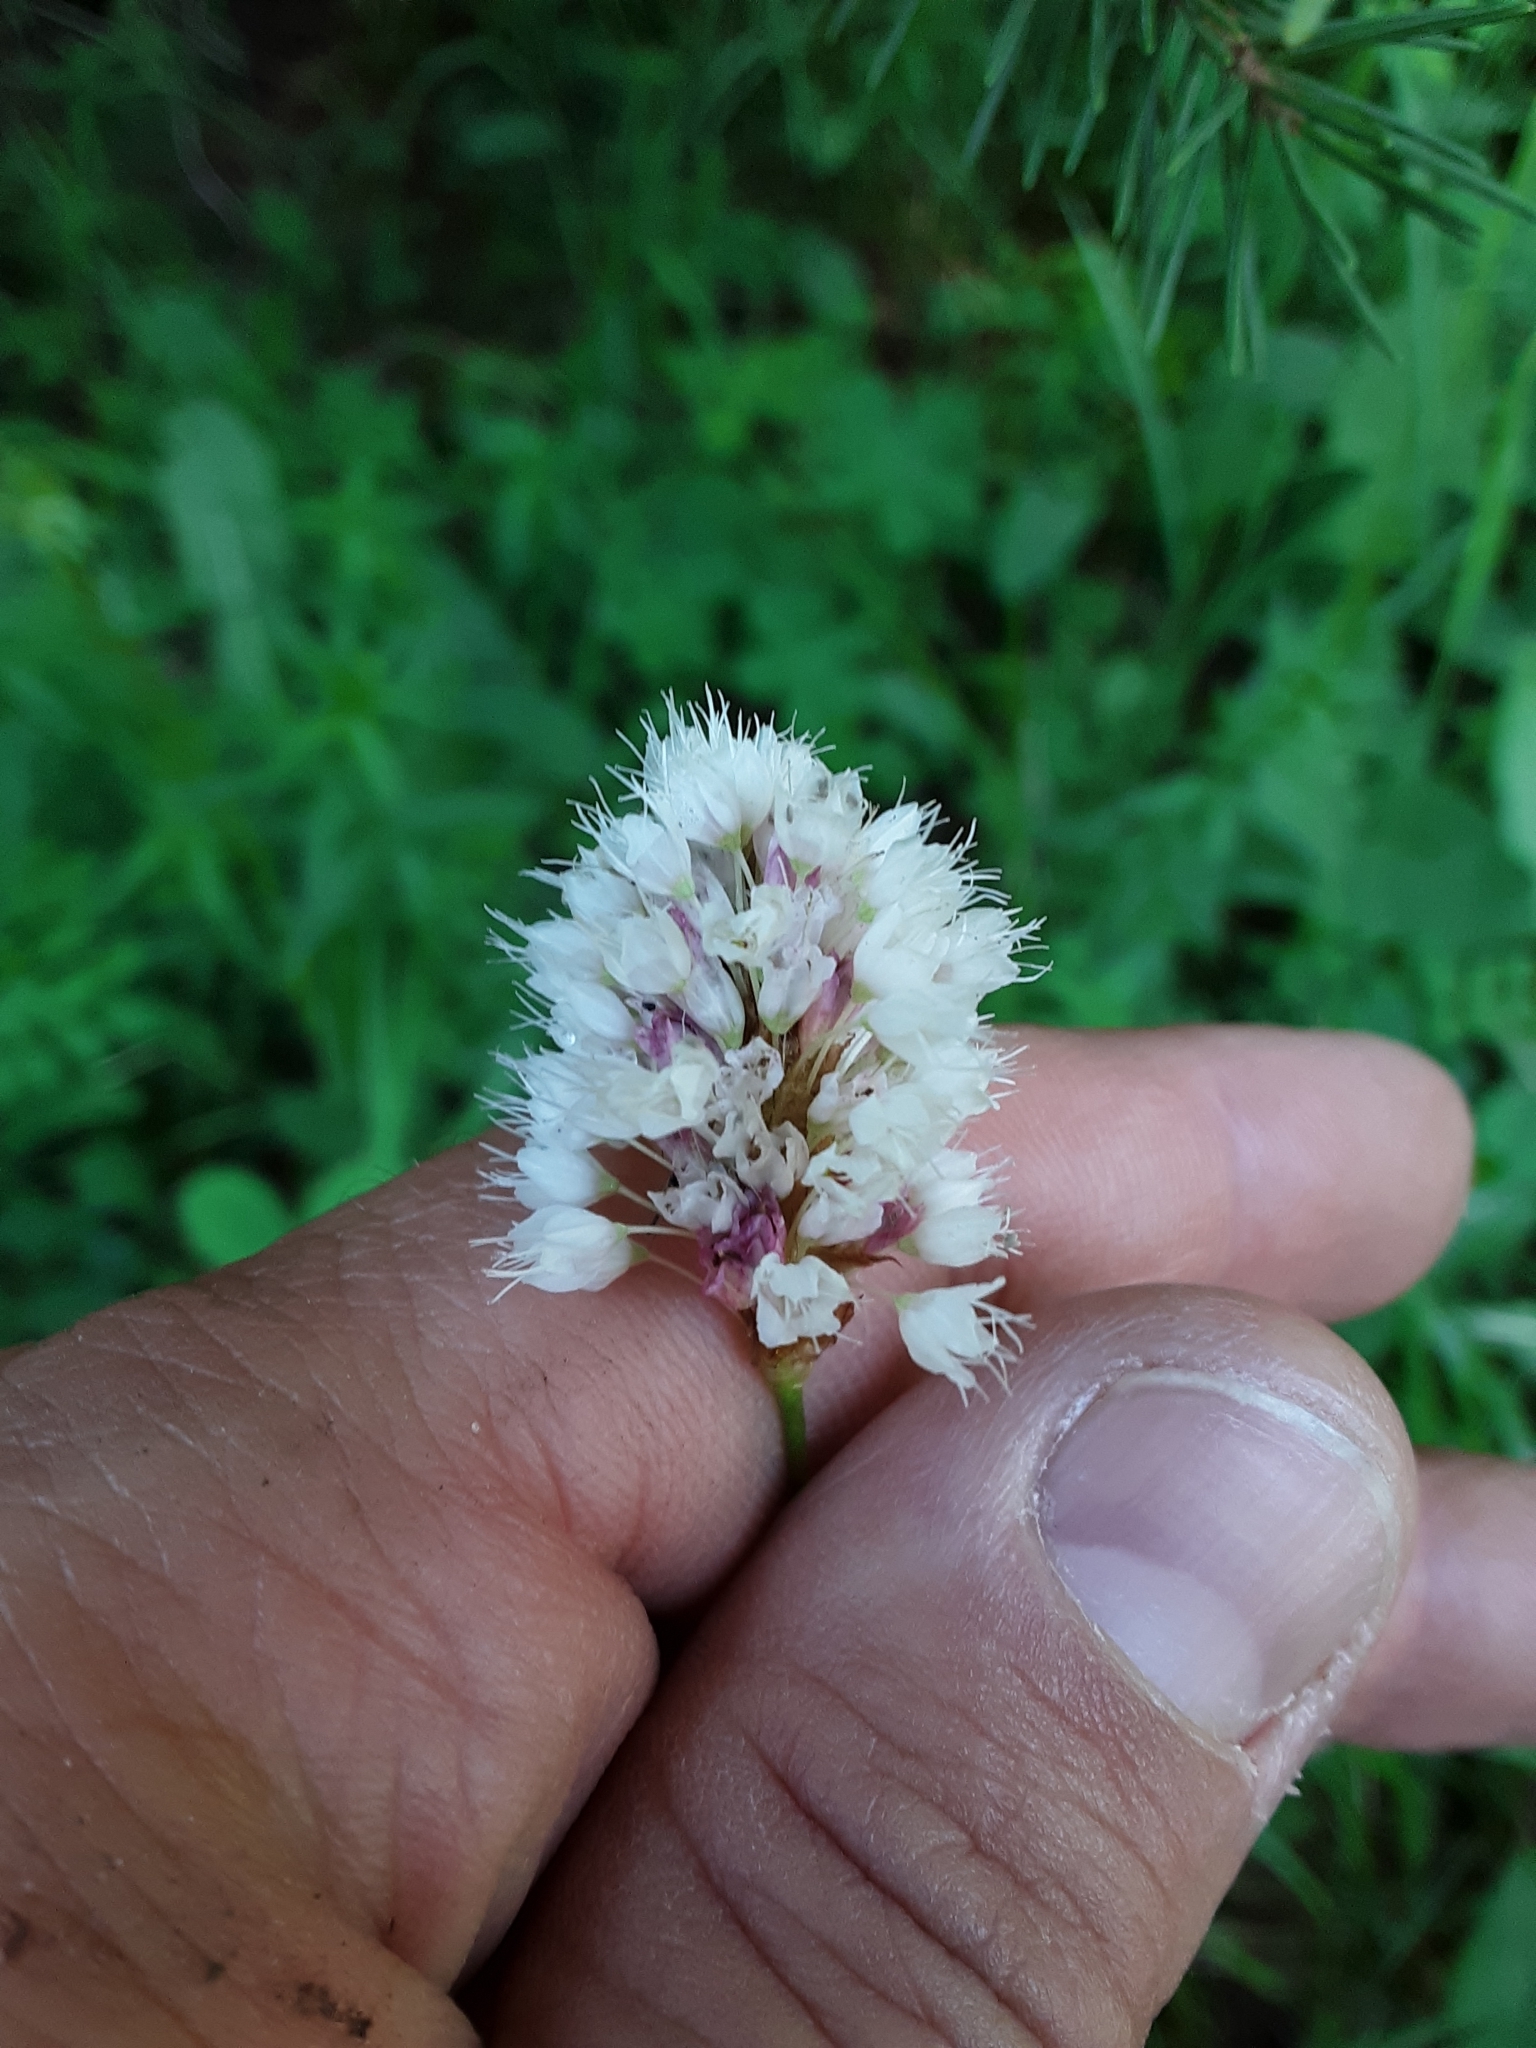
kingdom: Plantae
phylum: Tracheophyta
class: Magnoliopsida
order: Caryophyllales
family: Polygonaceae
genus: Bistorta
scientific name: Bistorta bistortoides
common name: American bistort
